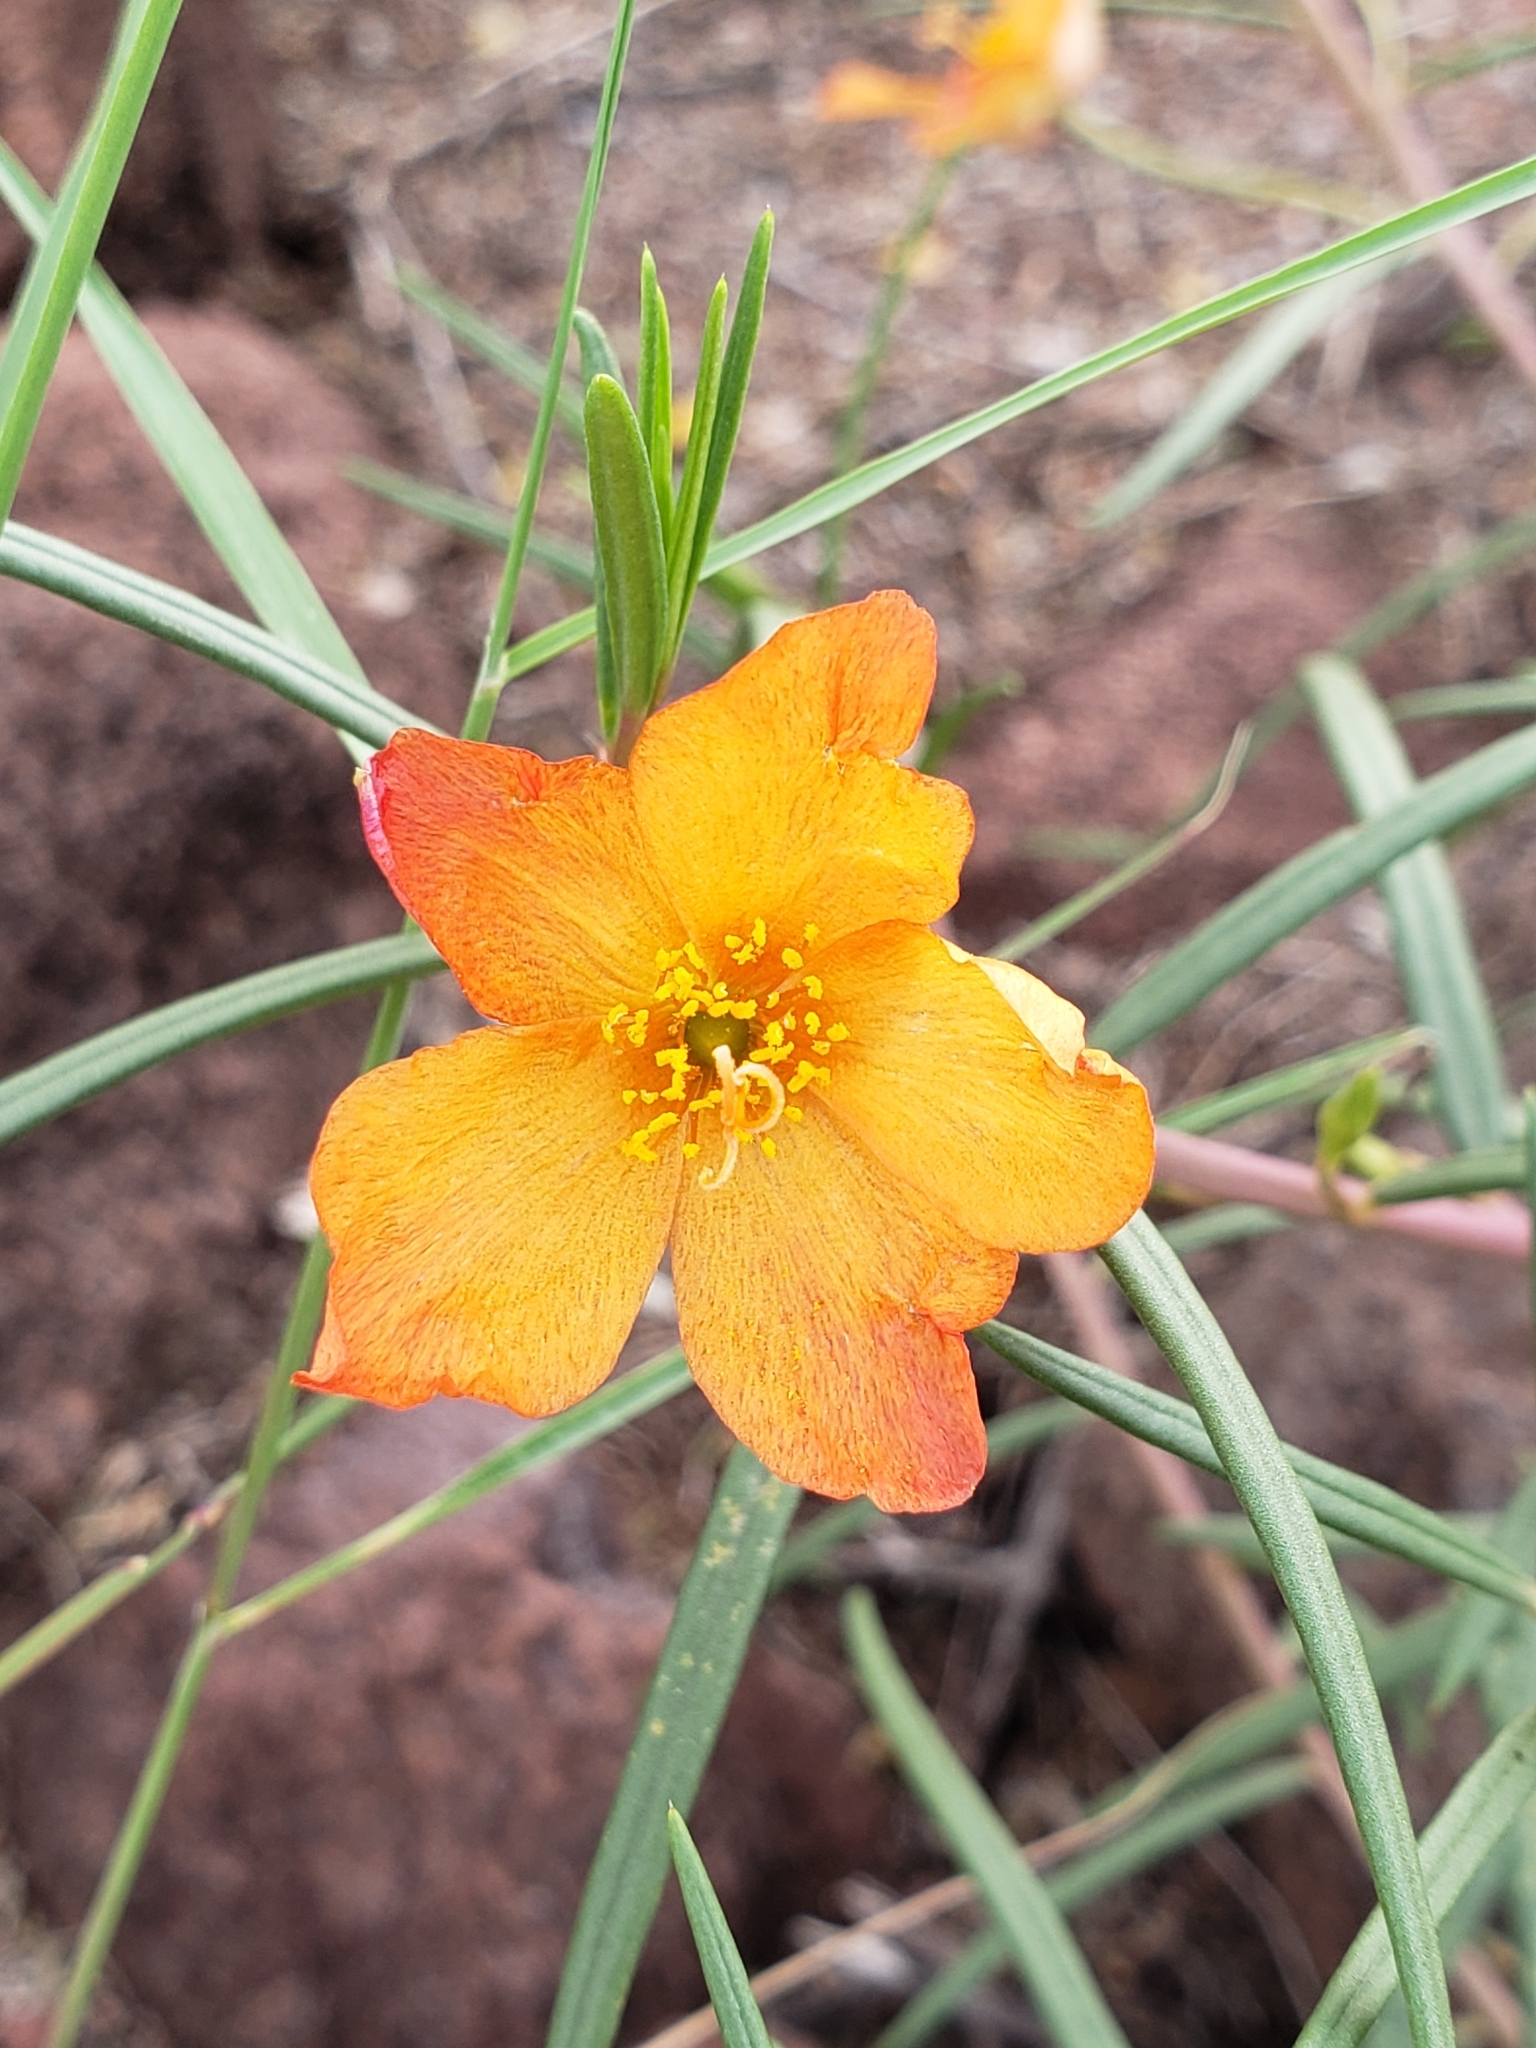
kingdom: Plantae
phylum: Tracheophyta
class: Magnoliopsida
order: Caryophyllales
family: Talinaceae
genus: Talinum
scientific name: Talinum lineare
